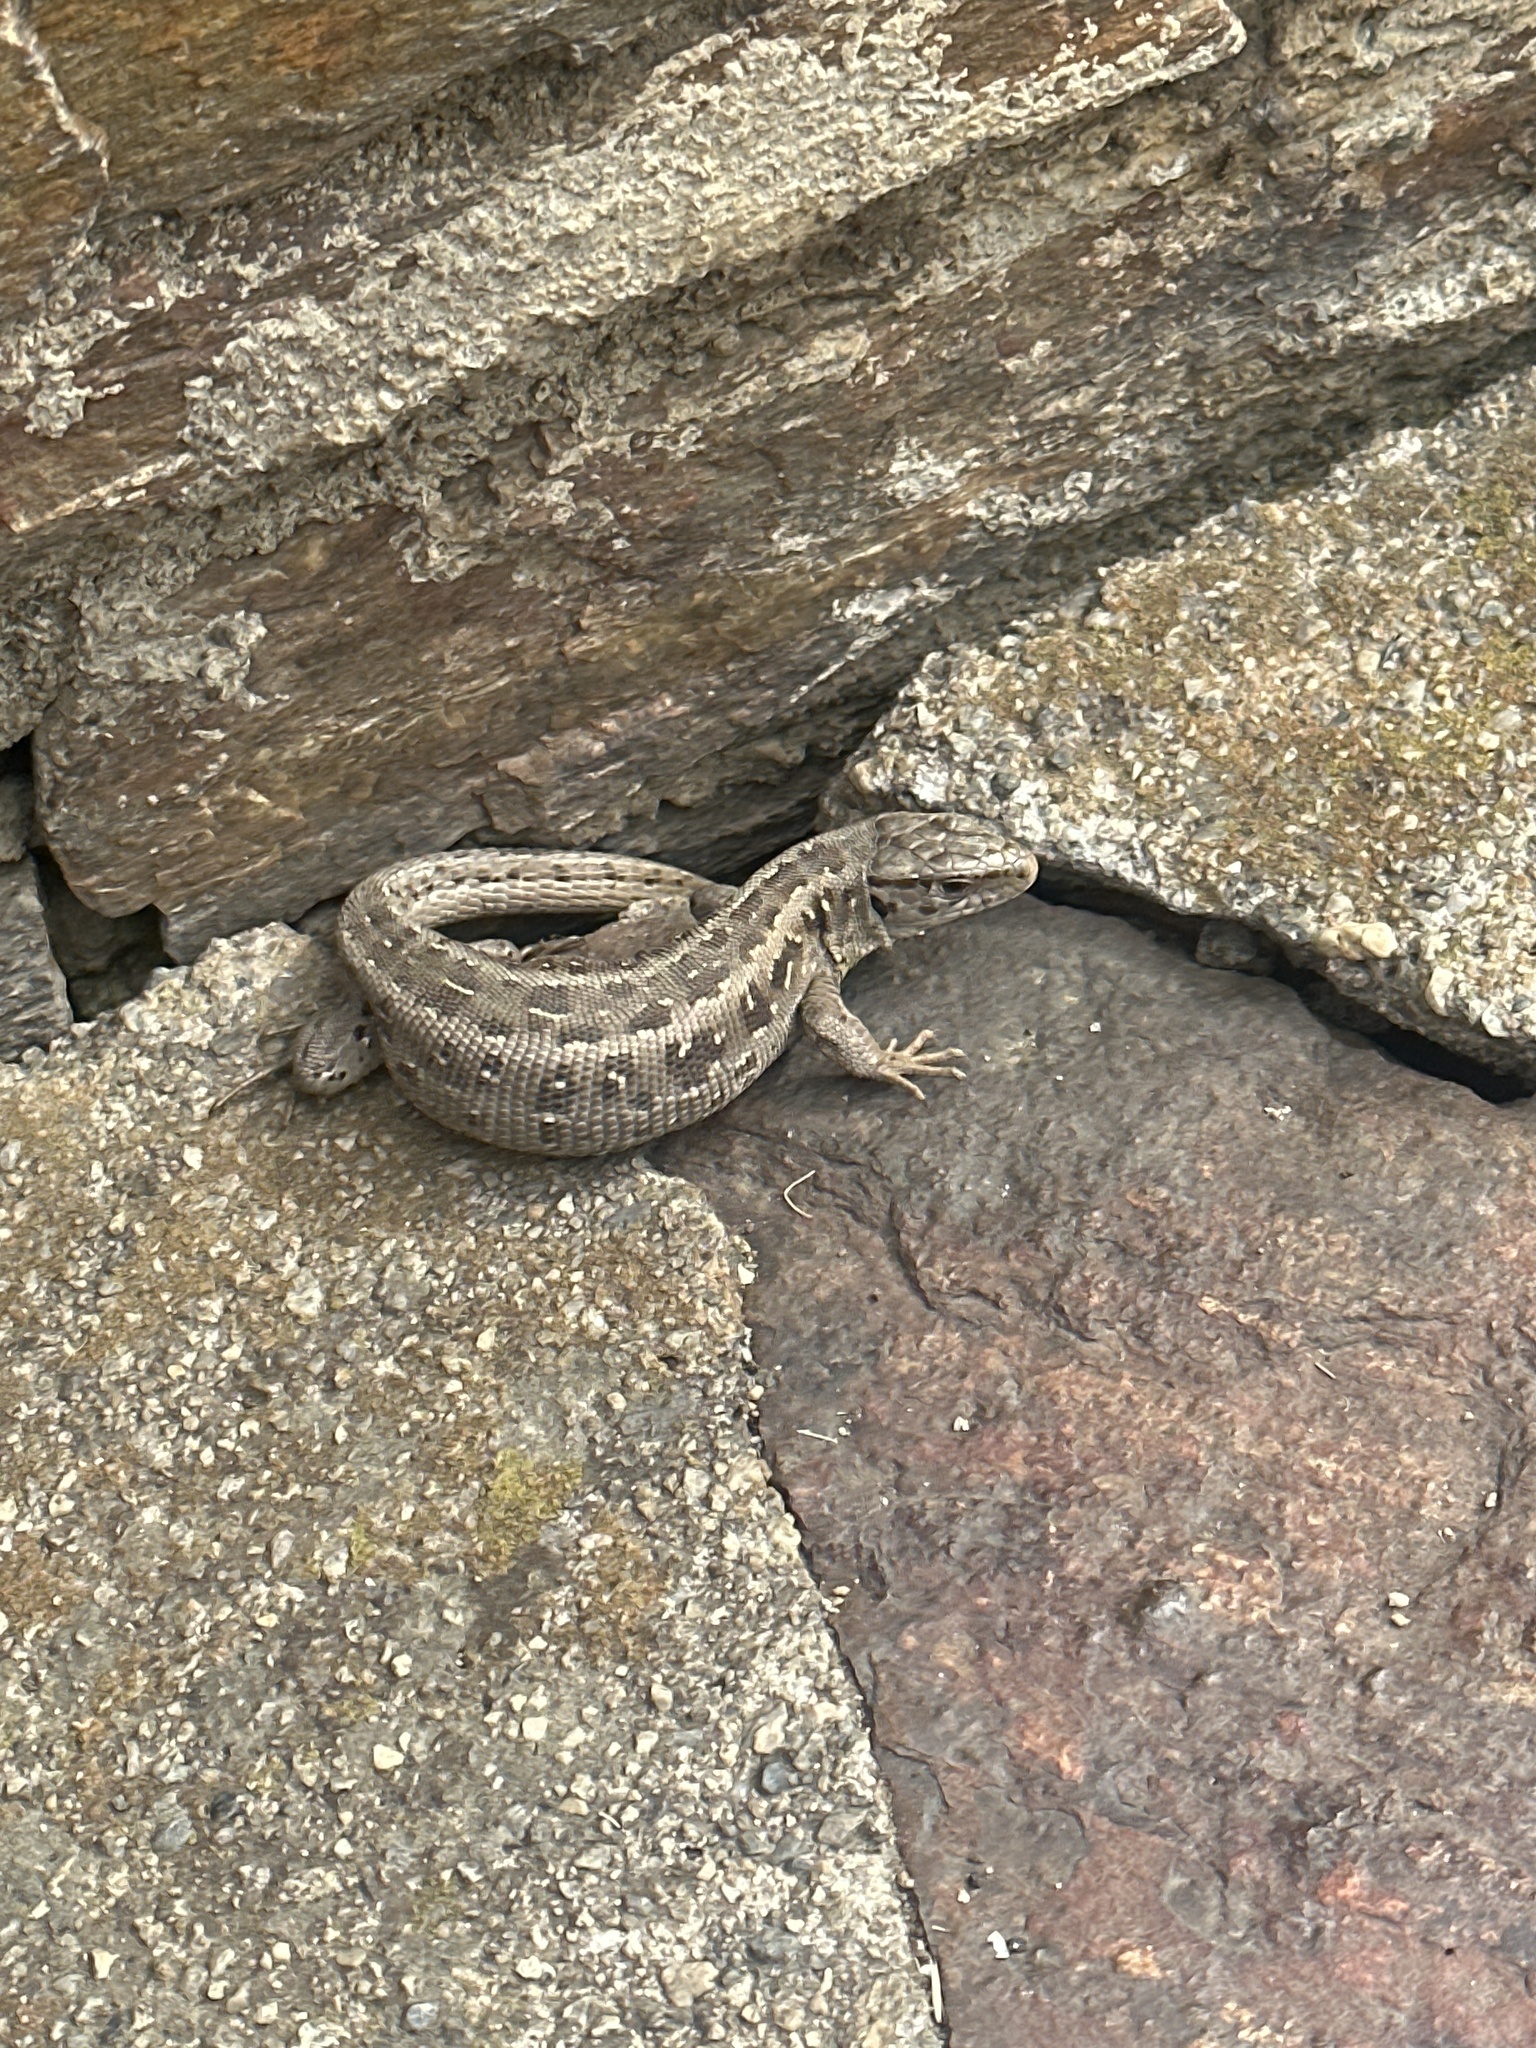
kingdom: Animalia
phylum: Chordata
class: Squamata
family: Lacertidae
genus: Lacerta
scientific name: Lacerta agilis
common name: Sand lizard
